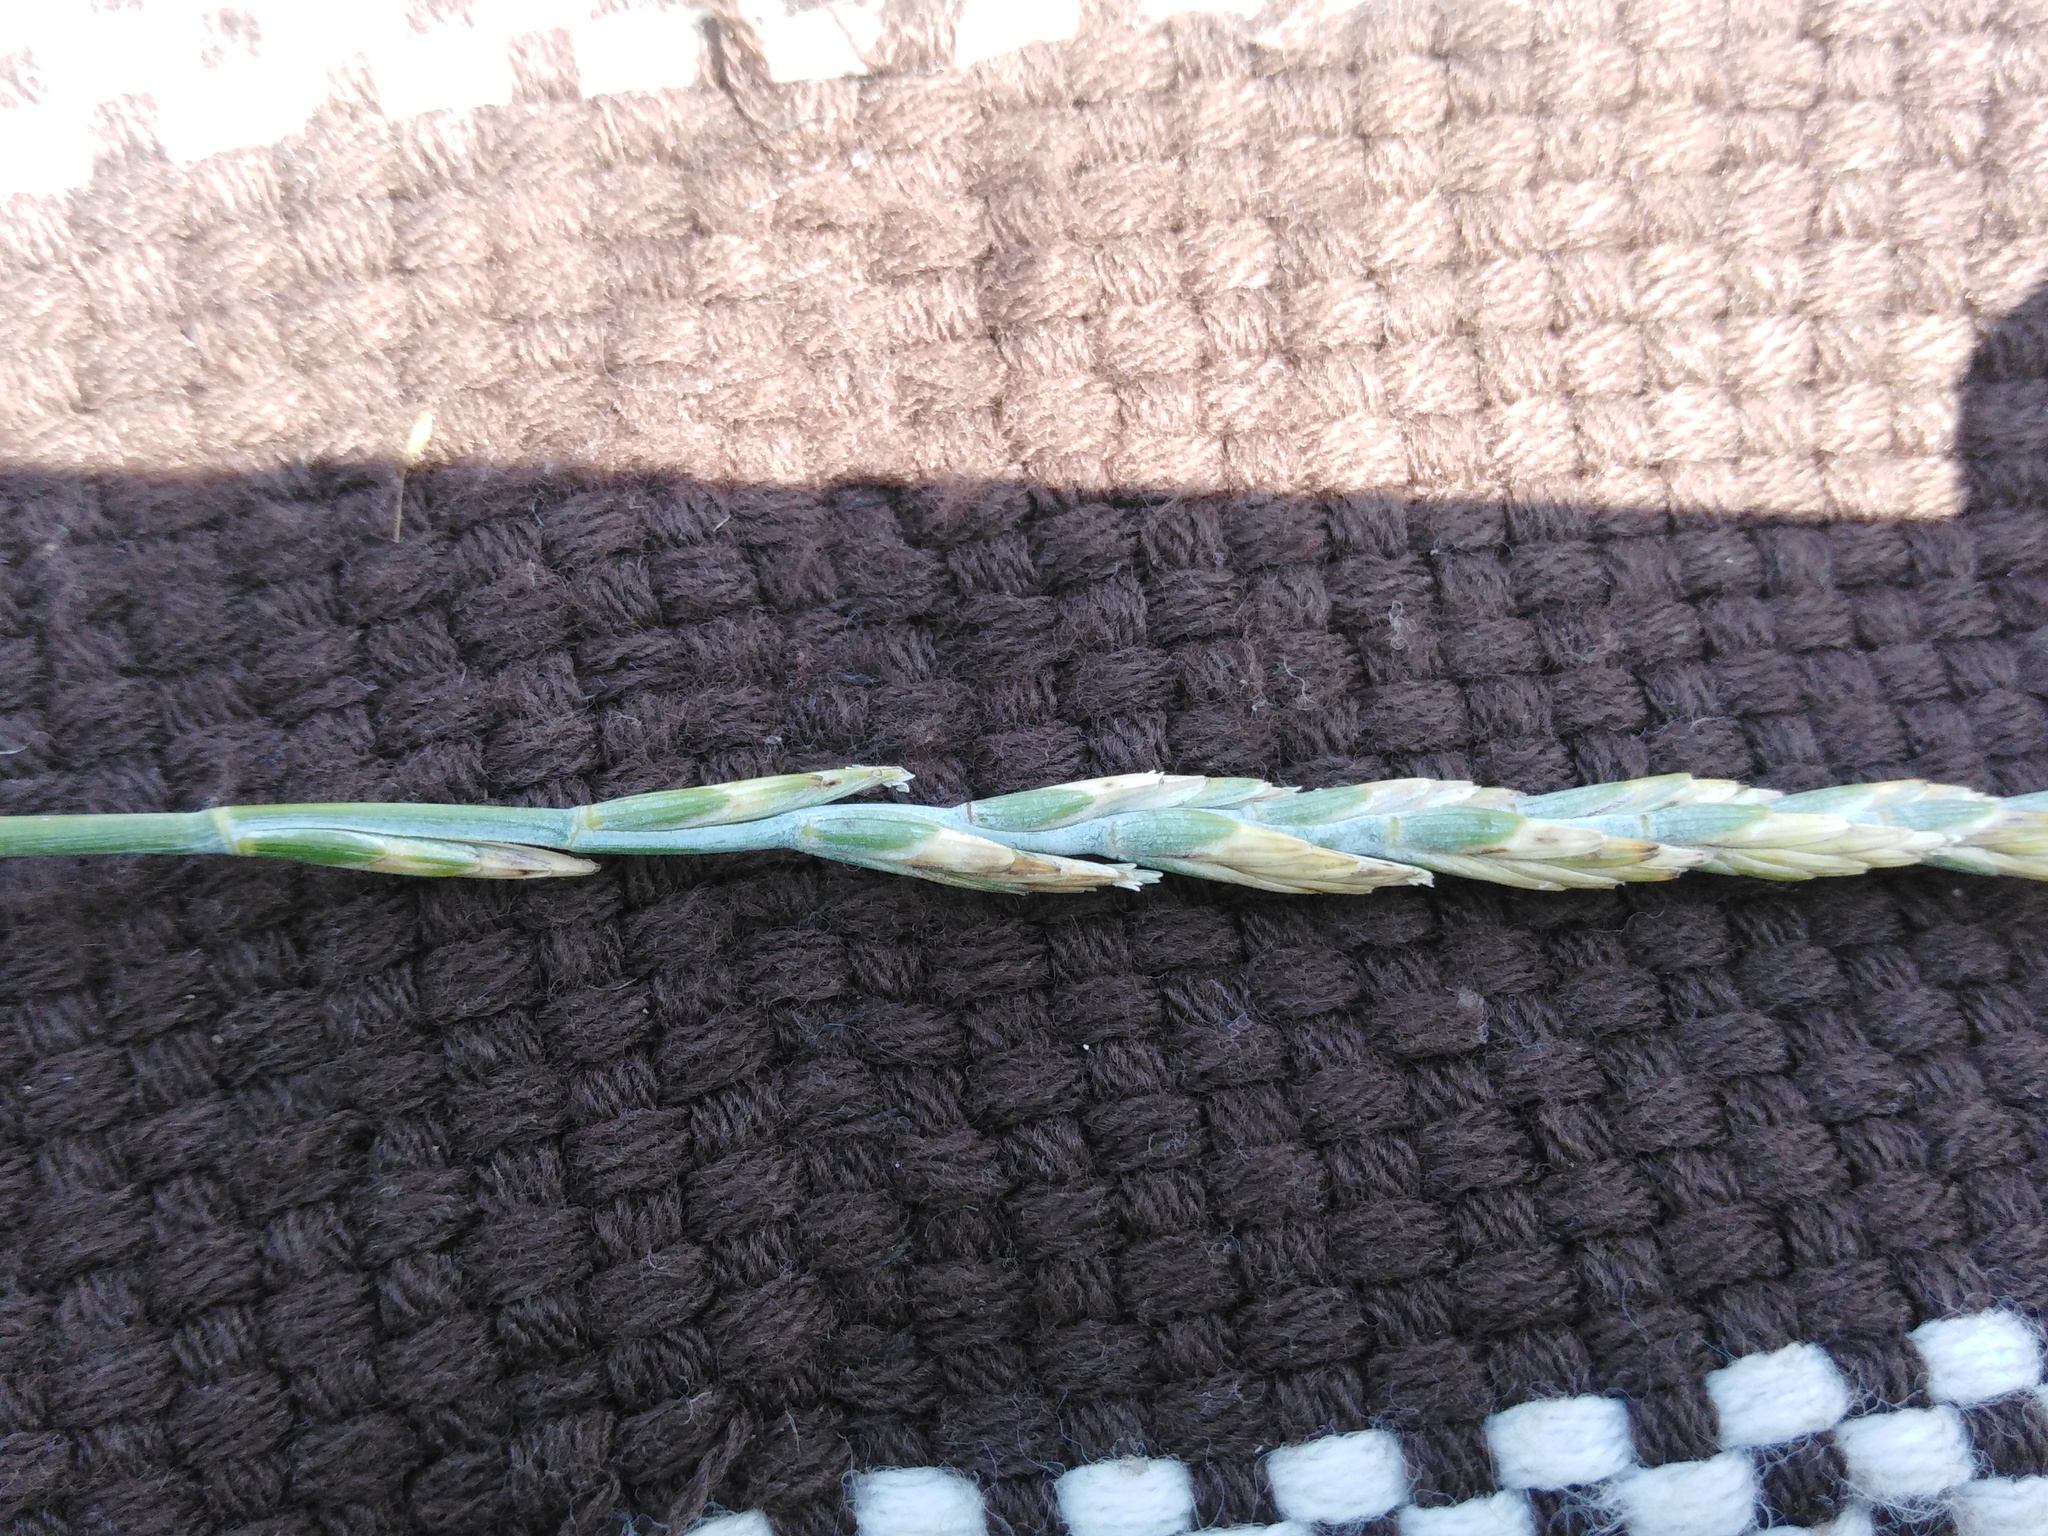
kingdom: Plantae
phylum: Tracheophyta
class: Liliopsida
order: Poales
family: Poaceae
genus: Thinopyrum
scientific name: Thinopyrum intermedium
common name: Intermediate wheatgrass
